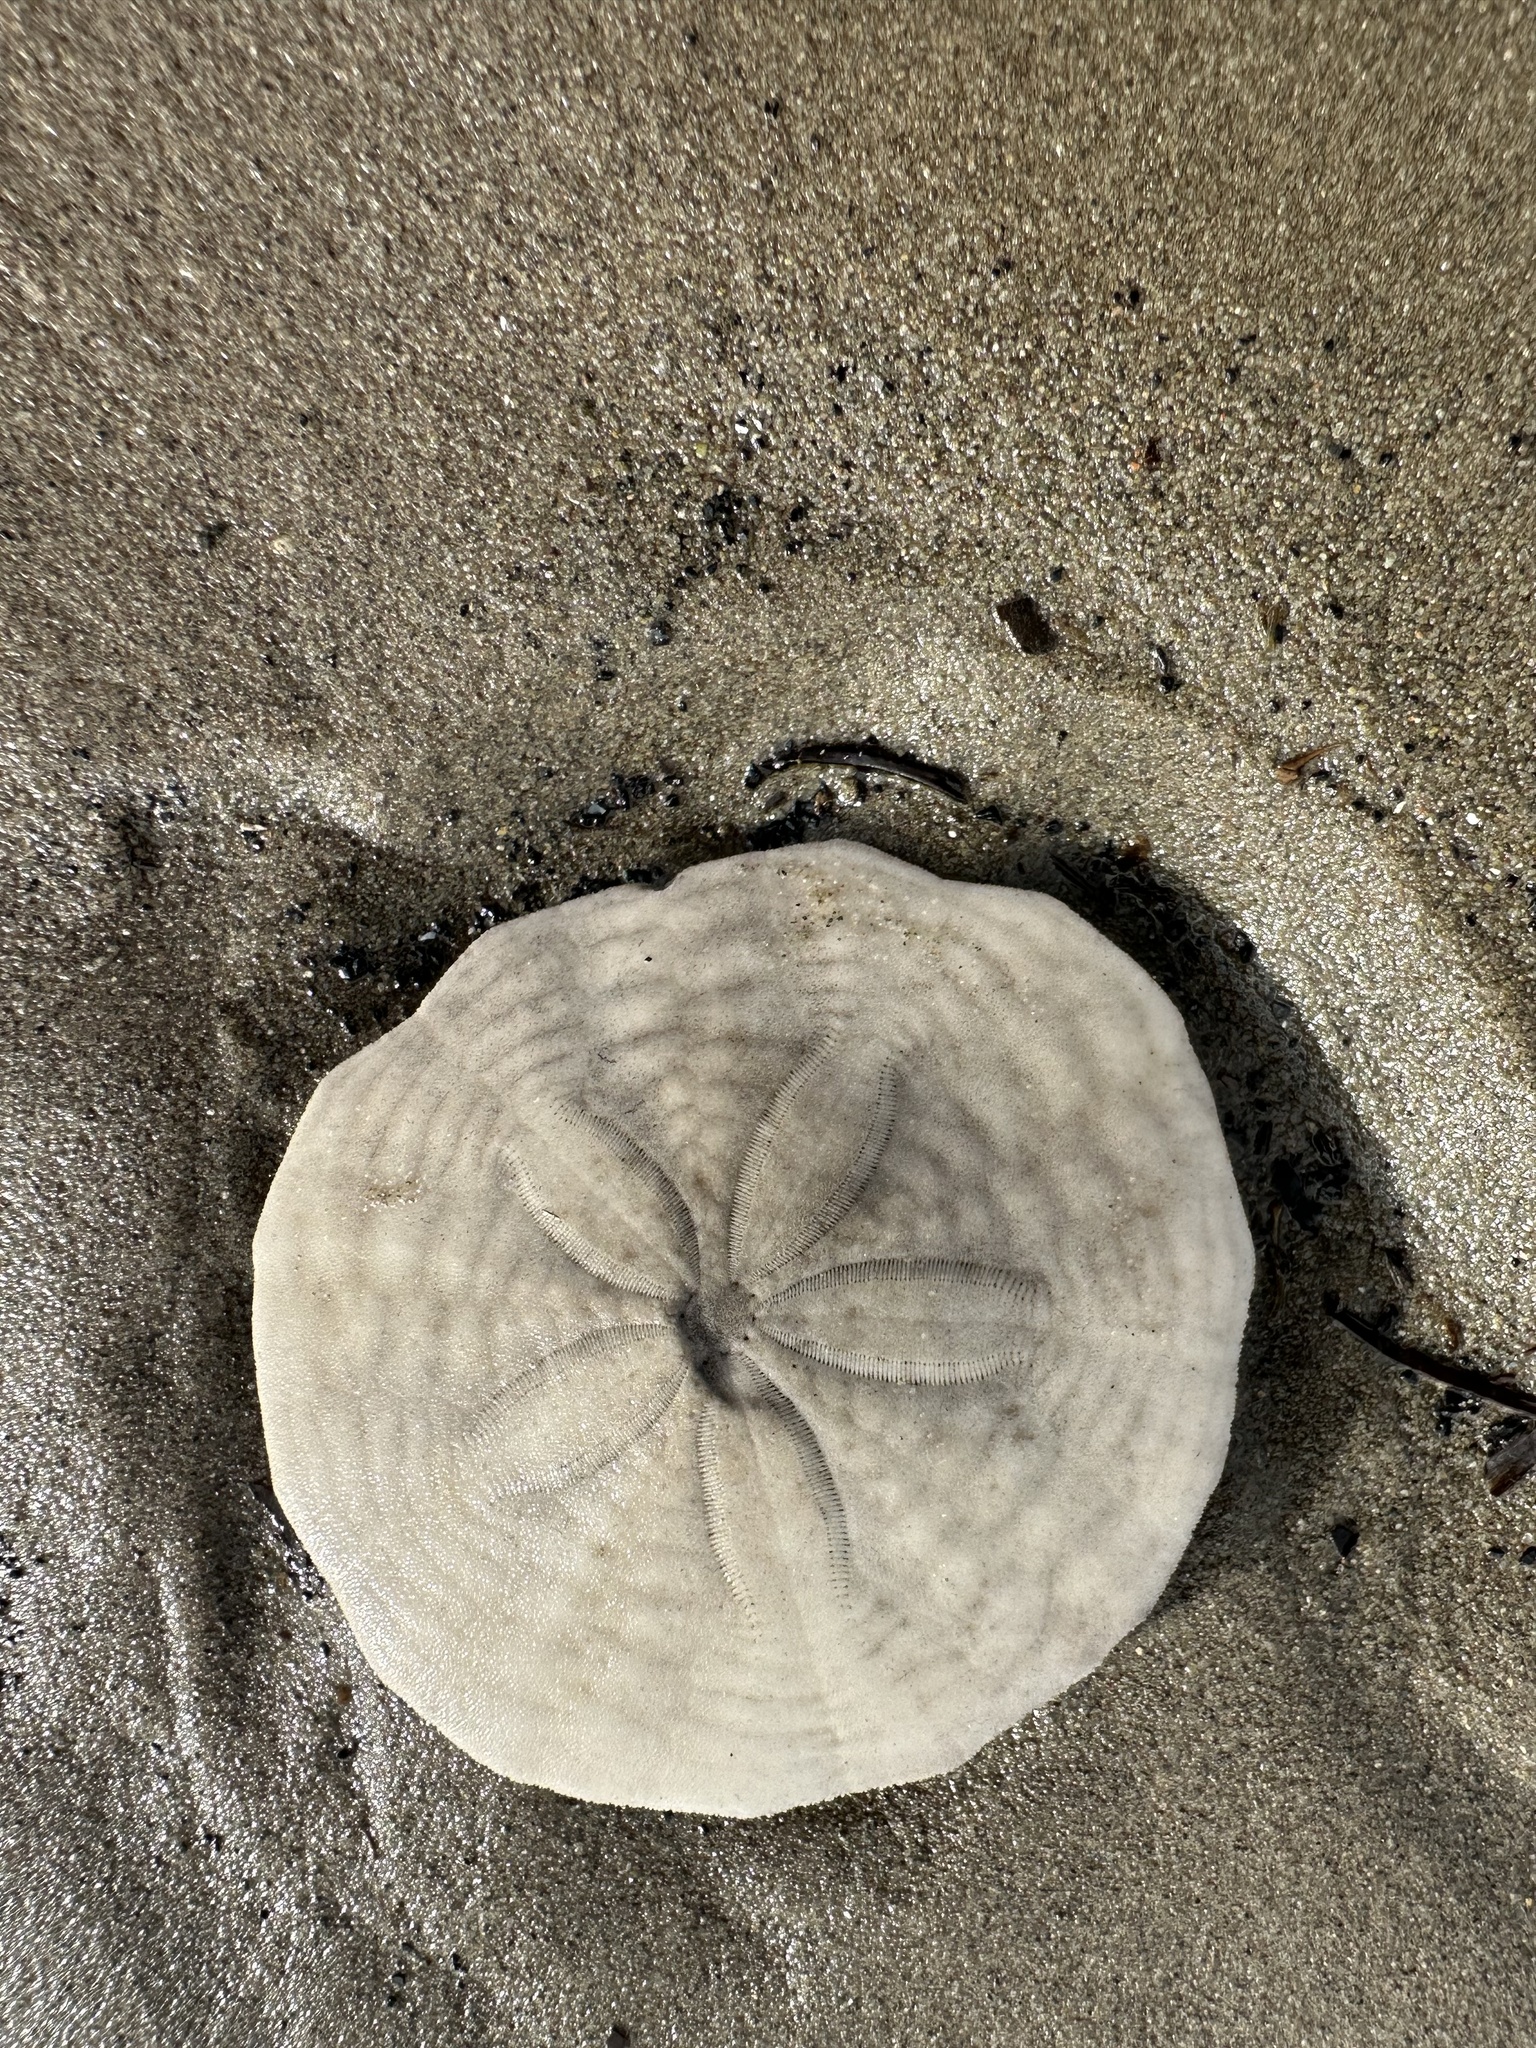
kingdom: Animalia
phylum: Echinodermata
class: Echinoidea
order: Echinolampadacea
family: Echinarachniidae
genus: Echinarachnius
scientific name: Echinarachnius parma
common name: Common sand dollar
